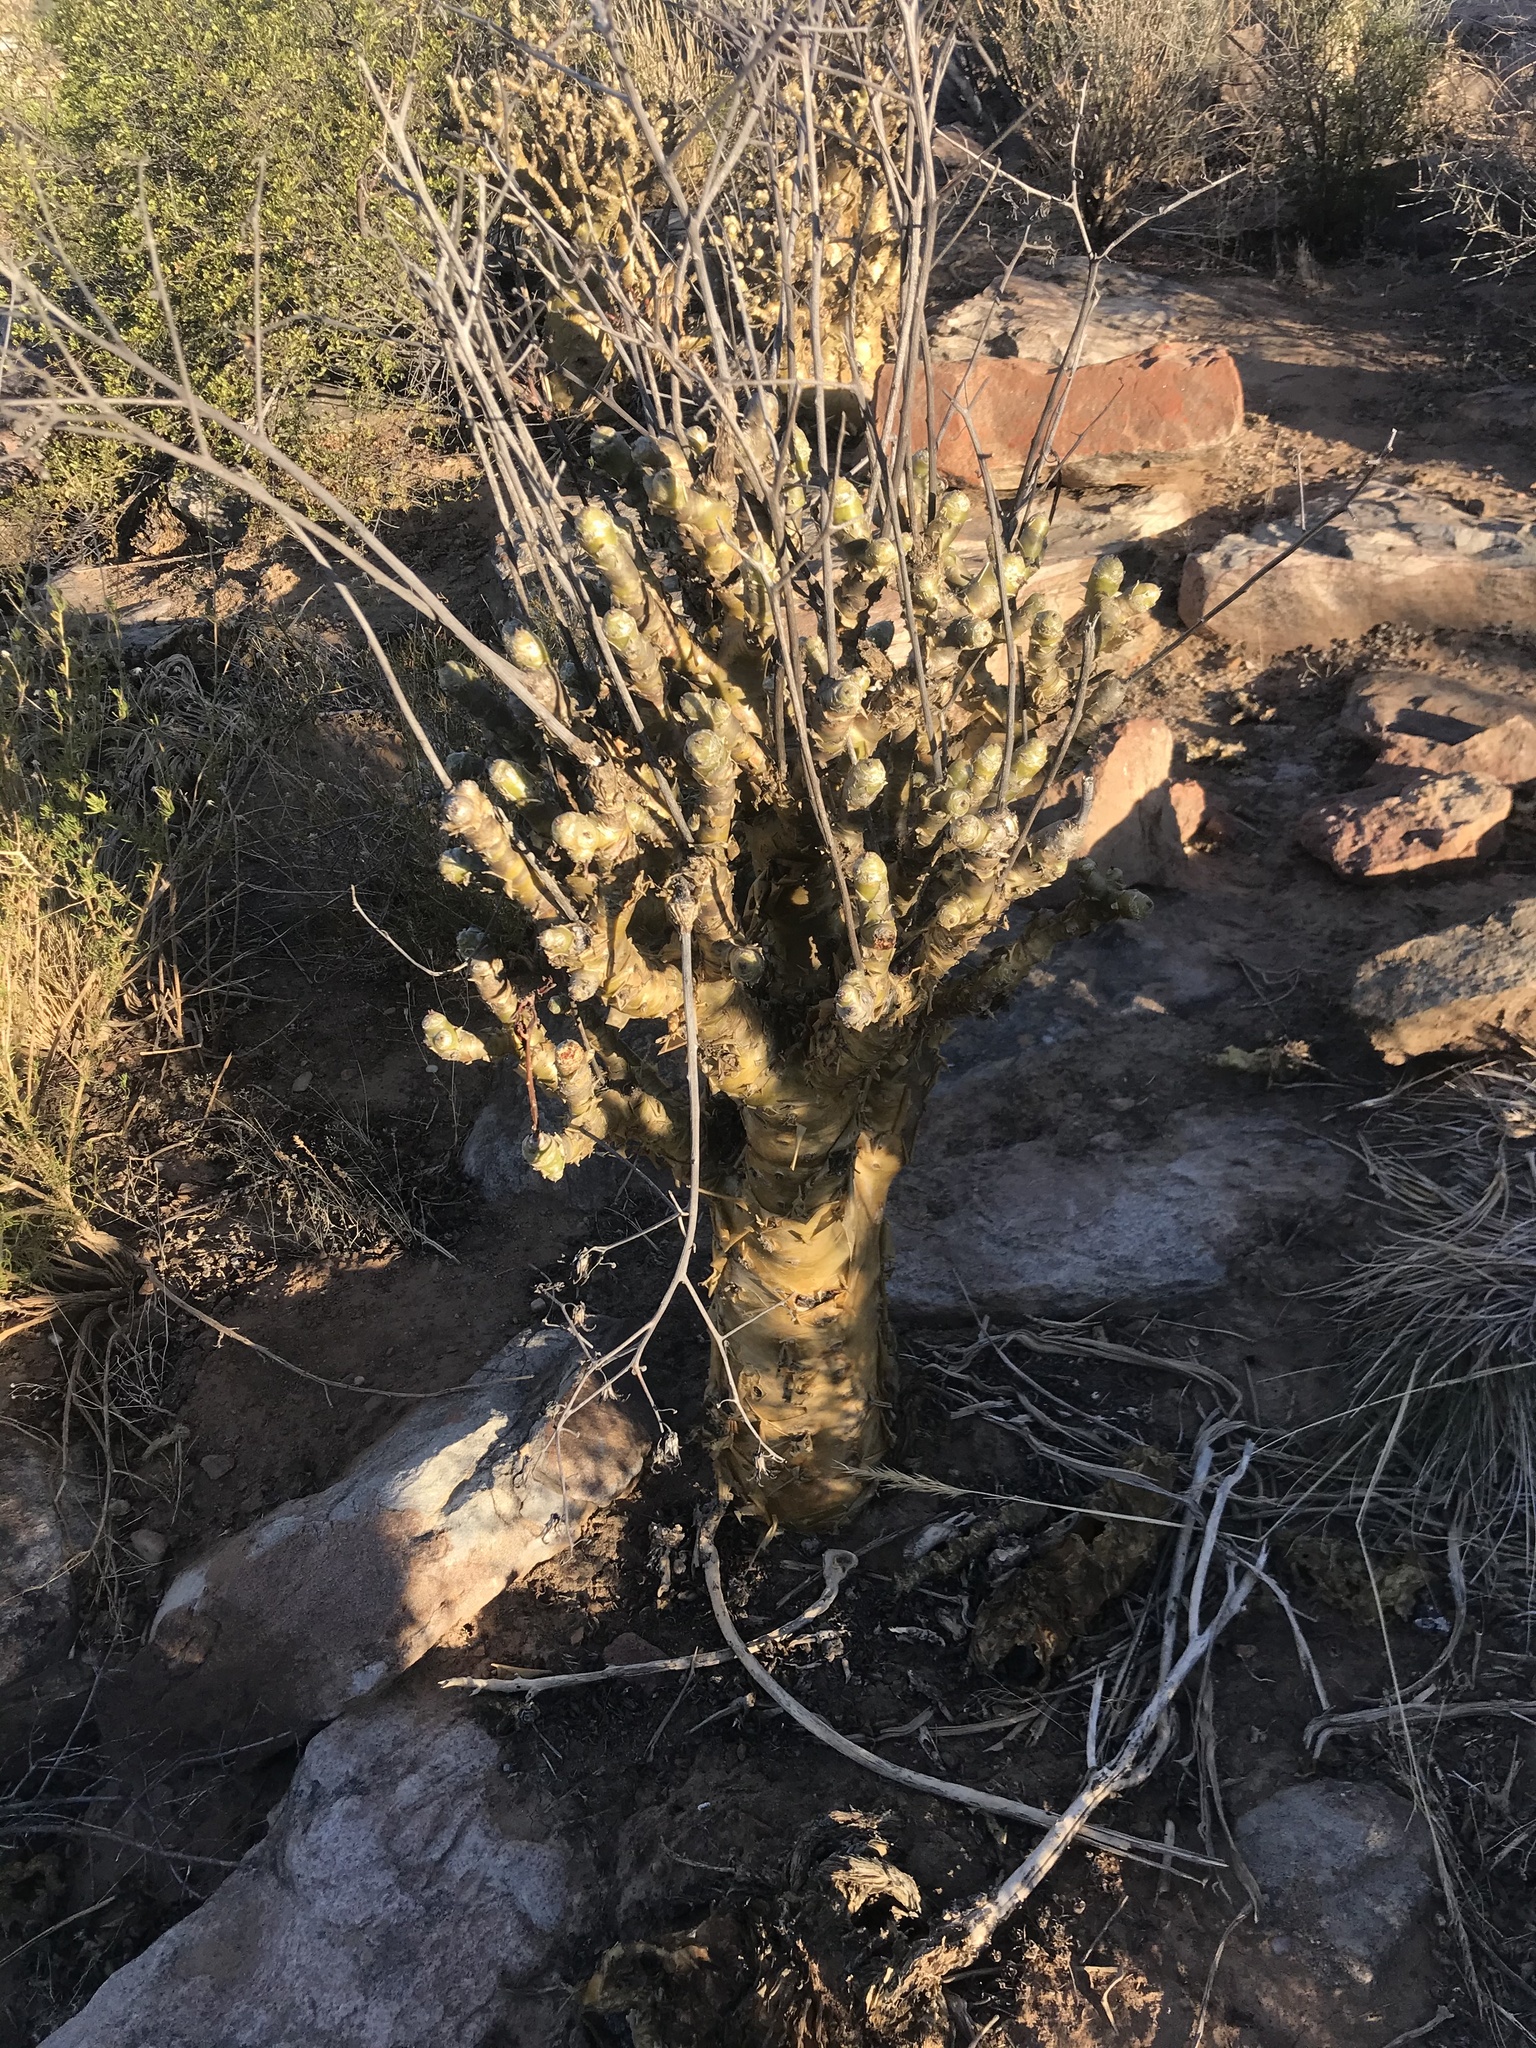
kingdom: Plantae
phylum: Tracheophyta
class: Magnoliopsida
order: Saxifragales
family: Crassulaceae
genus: Tylecodon
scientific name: Tylecodon paniculatus
